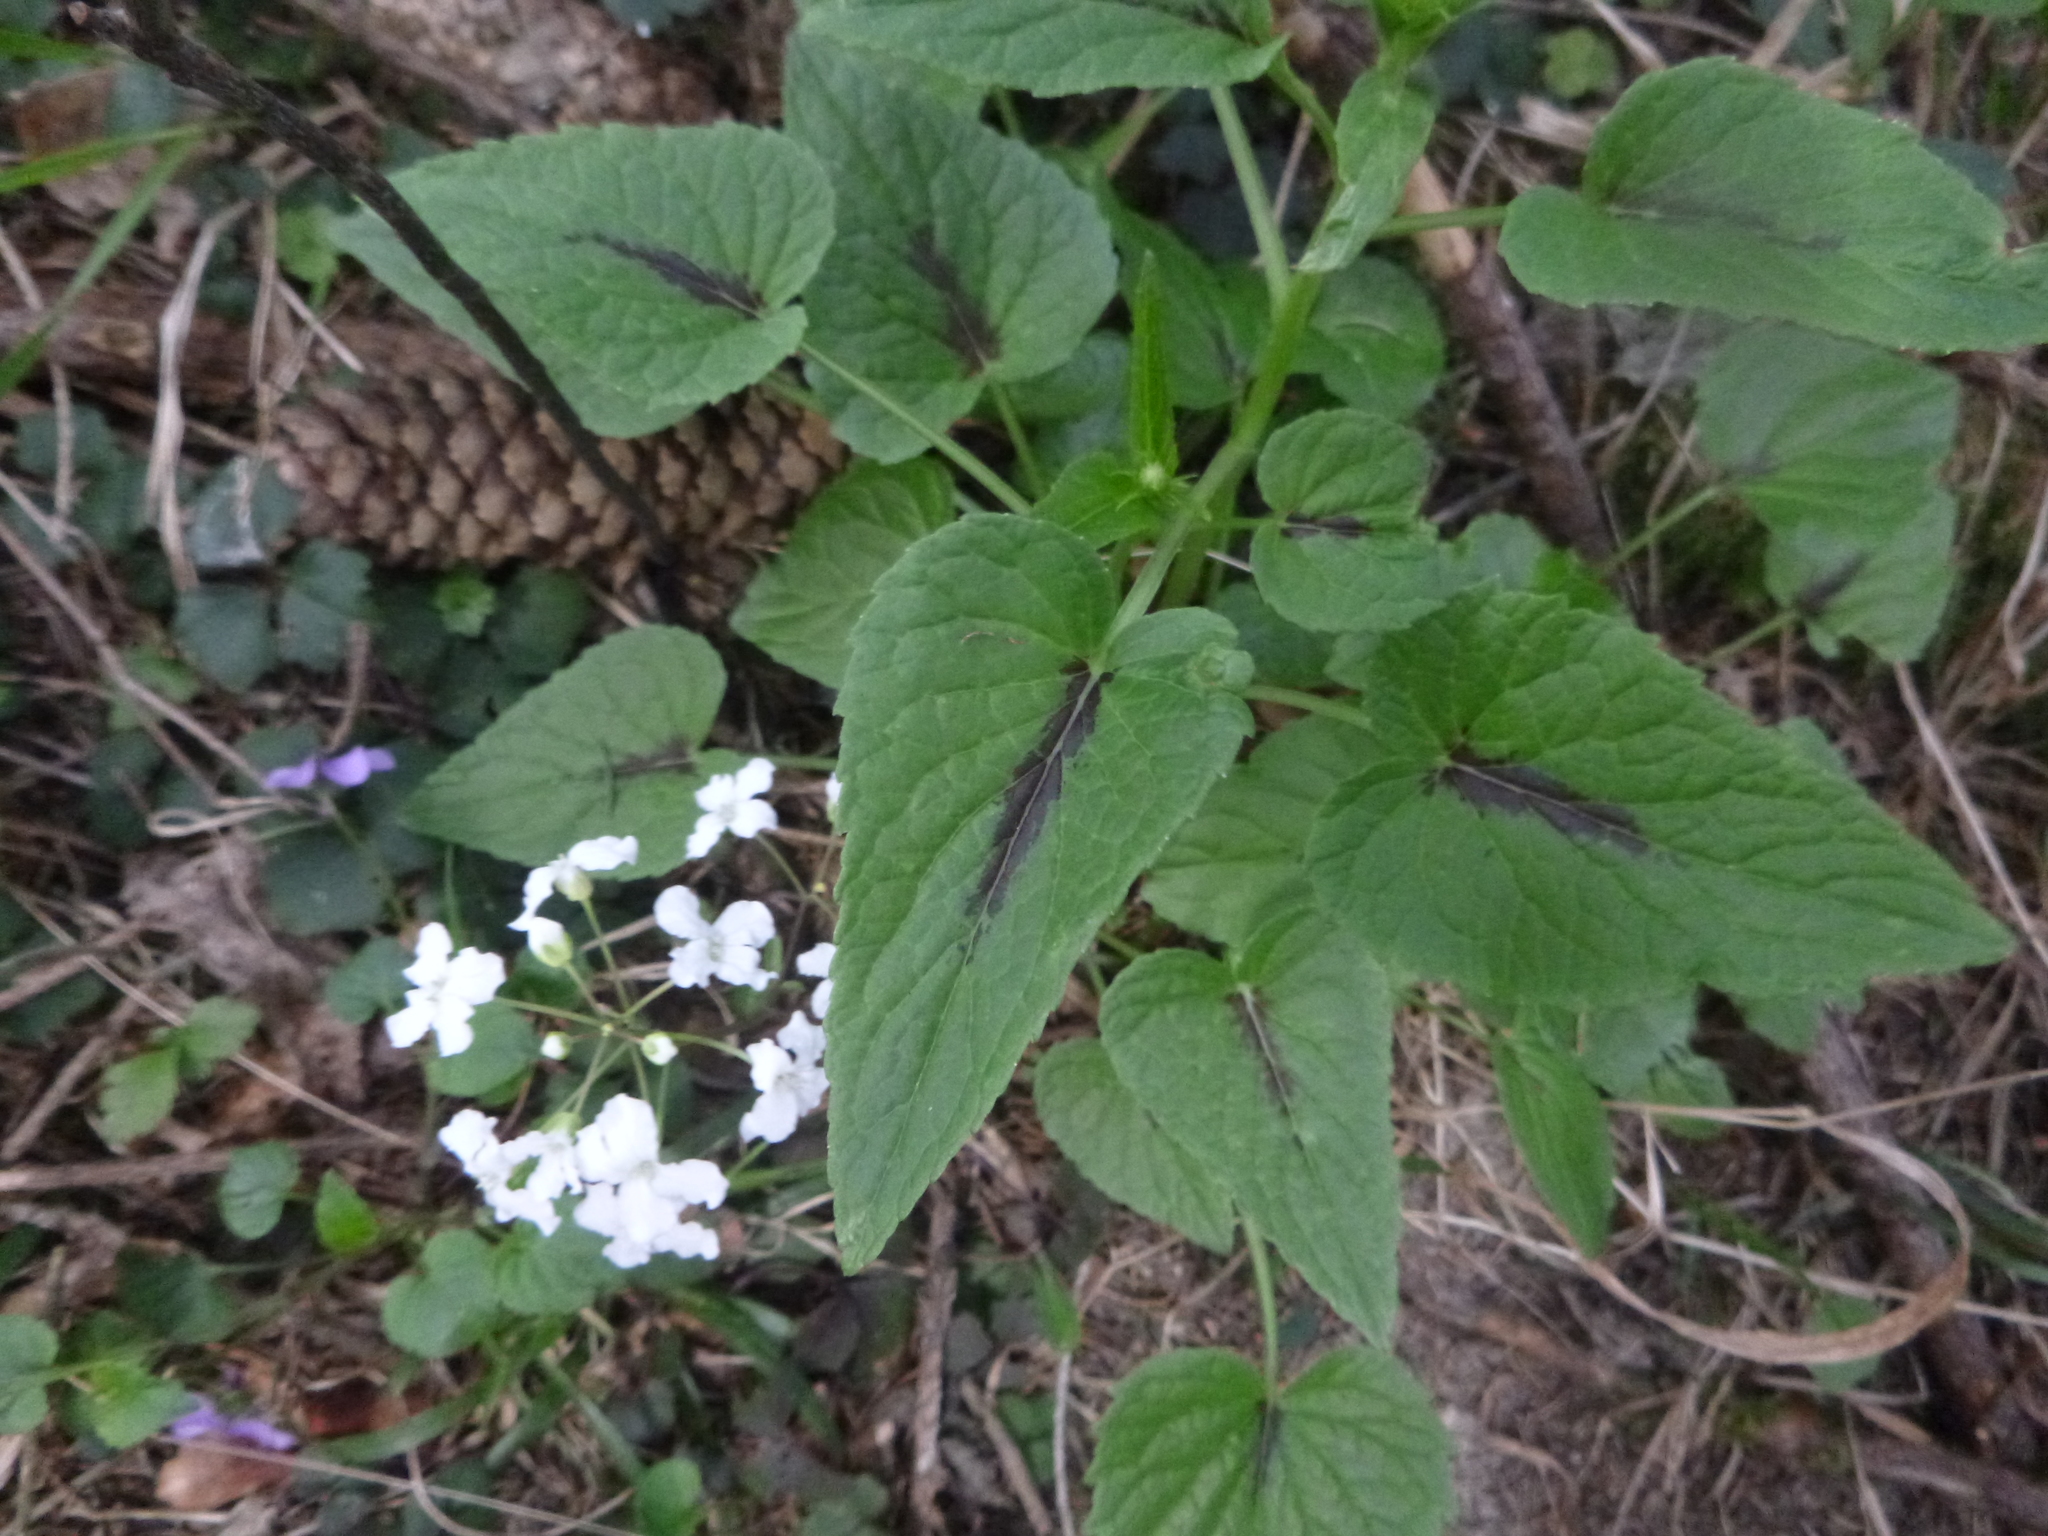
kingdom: Plantae
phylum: Tracheophyta
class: Magnoliopsida
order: Asterales
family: Campanulaceae
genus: Phyteuma
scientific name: Phyteuma spicatum
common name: Spiked rampion
